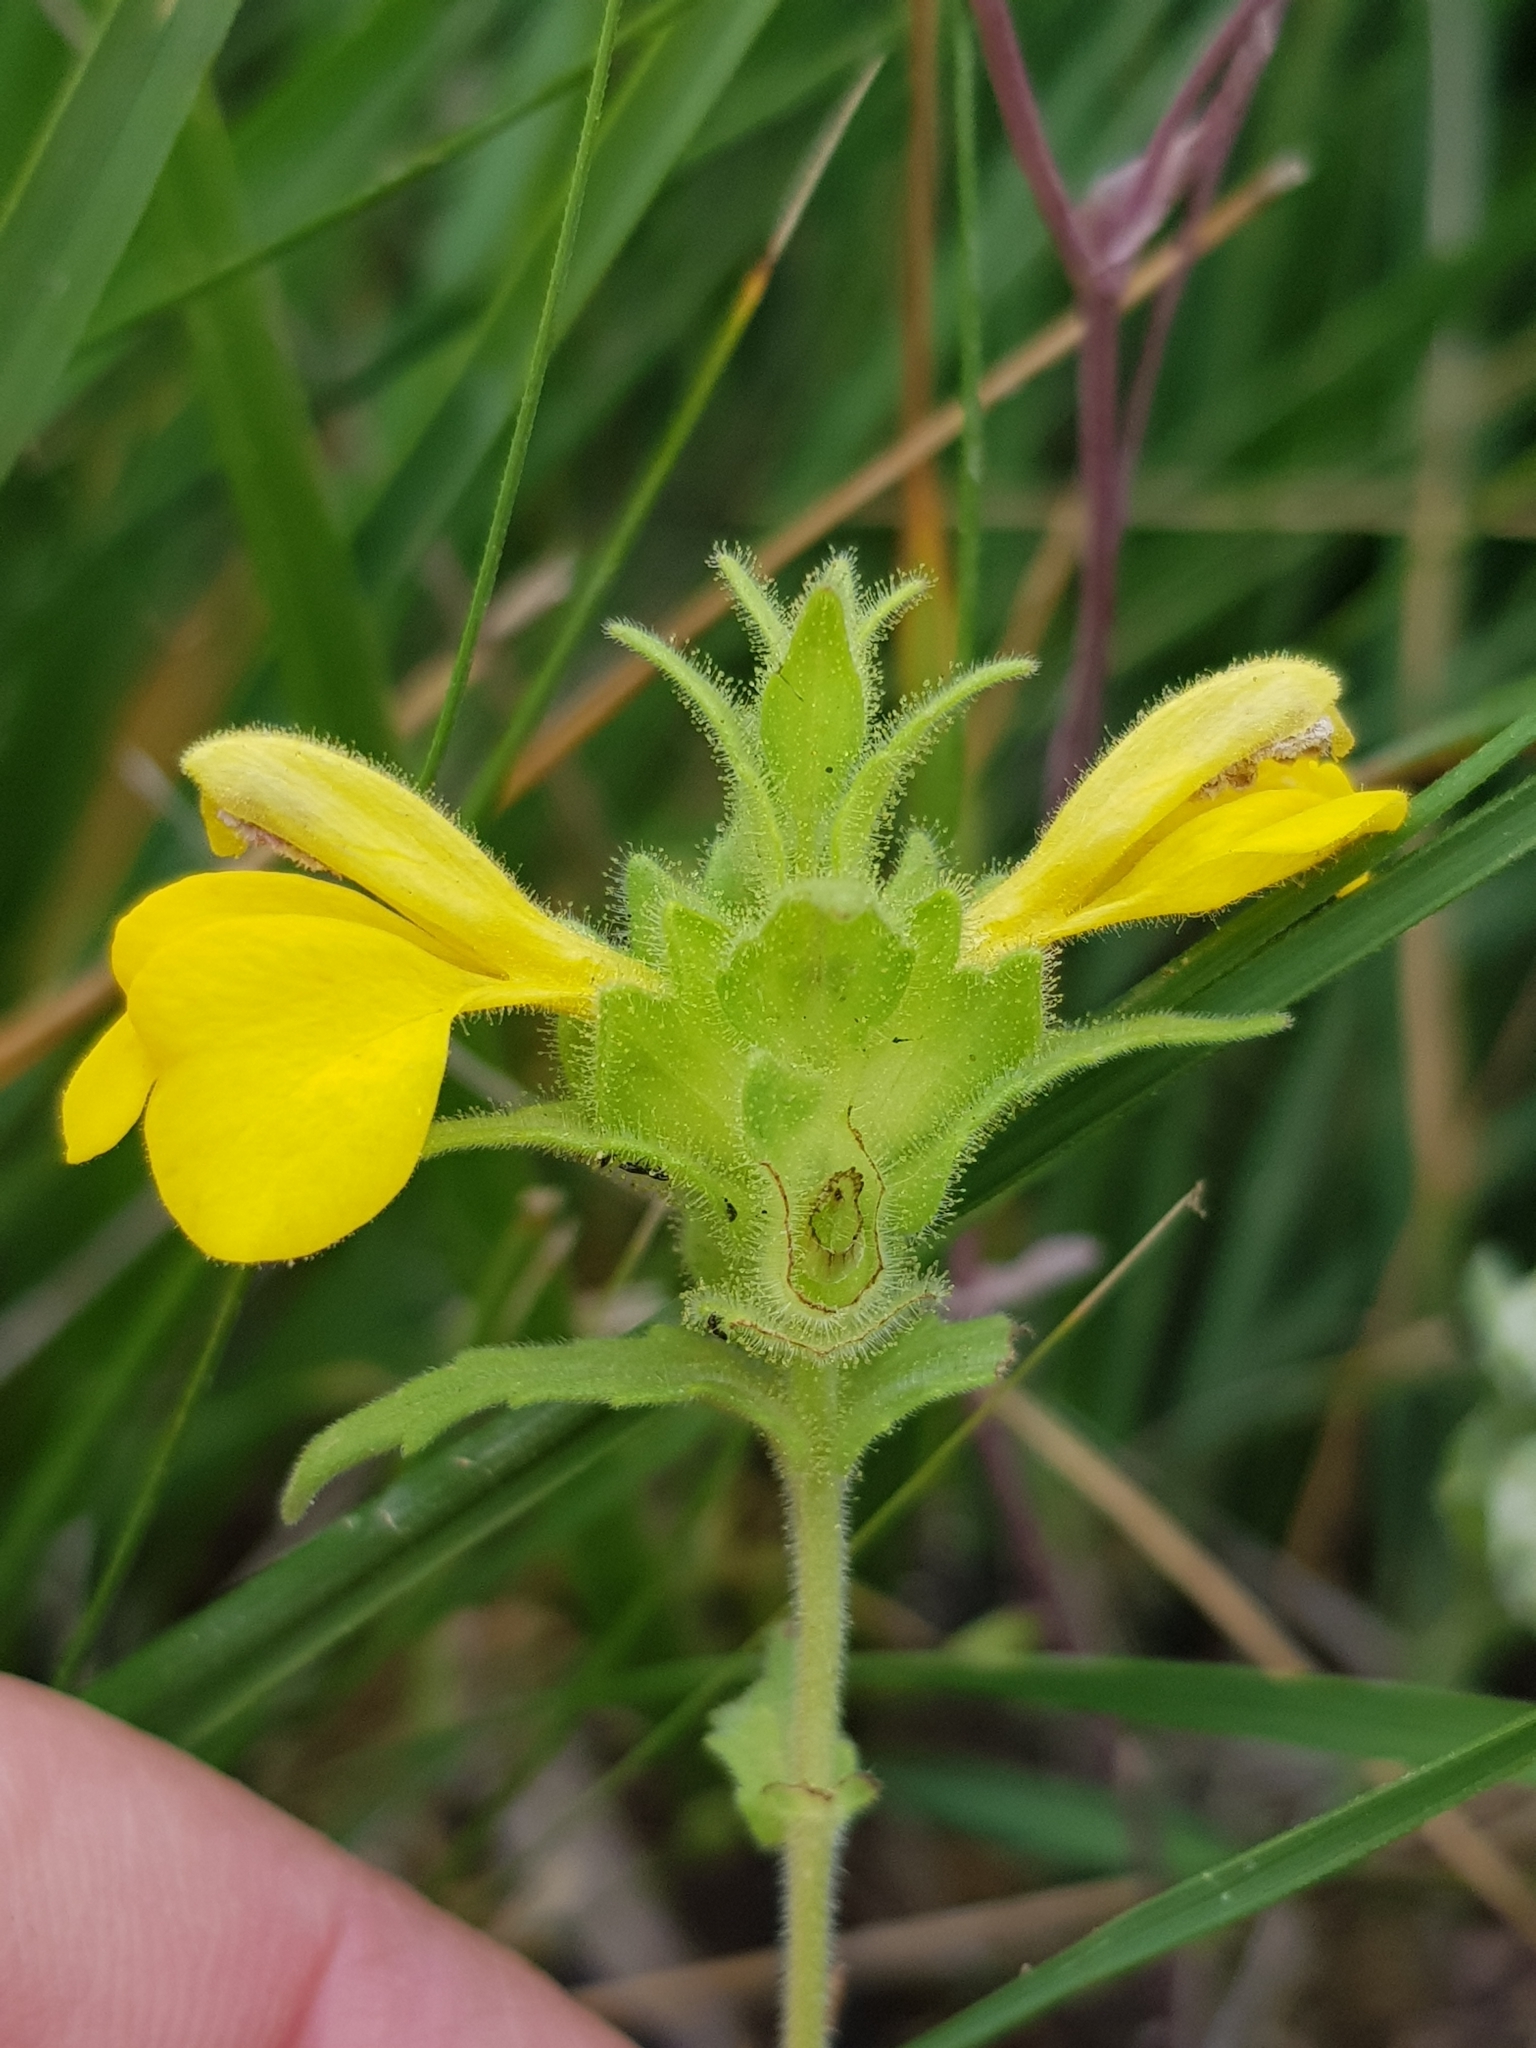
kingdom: Plantae
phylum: Tracheophyta
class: Magnoliopsida
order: Lamiales
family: Orobanchaceae
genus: Bellardia
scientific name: Bellardia trixago
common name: Mediterranean lineseed
